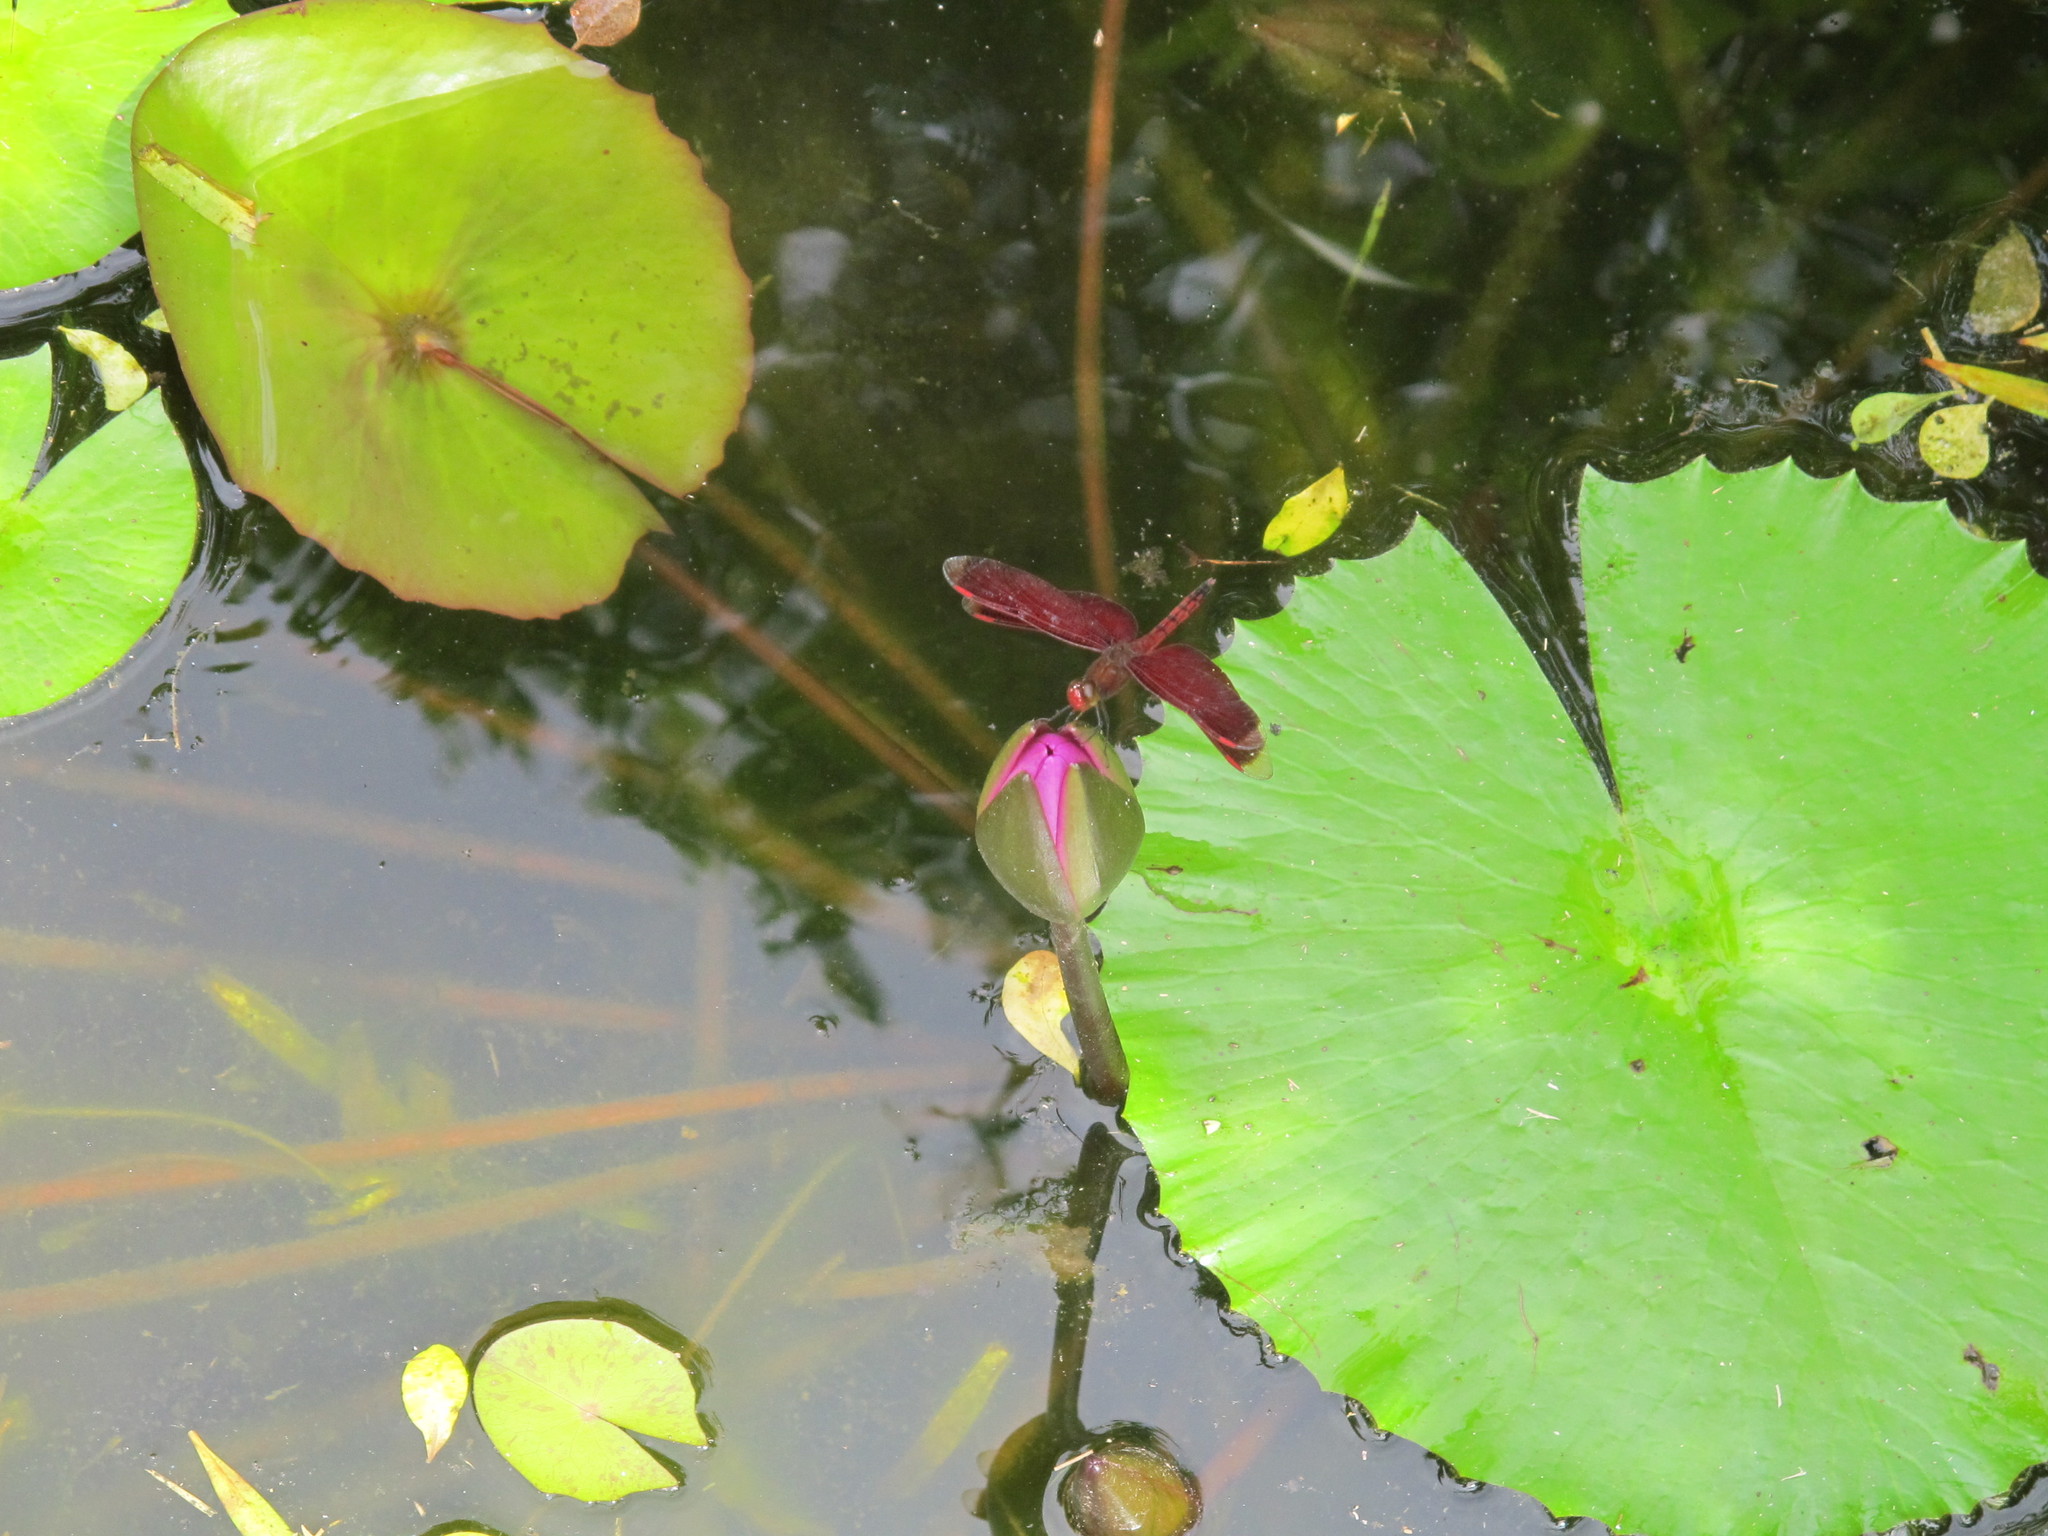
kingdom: Animalia
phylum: Arthropoda
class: Insecta
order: Odonata
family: Libellulidae
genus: Neurothemis
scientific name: Neurothemis taiwanensis
